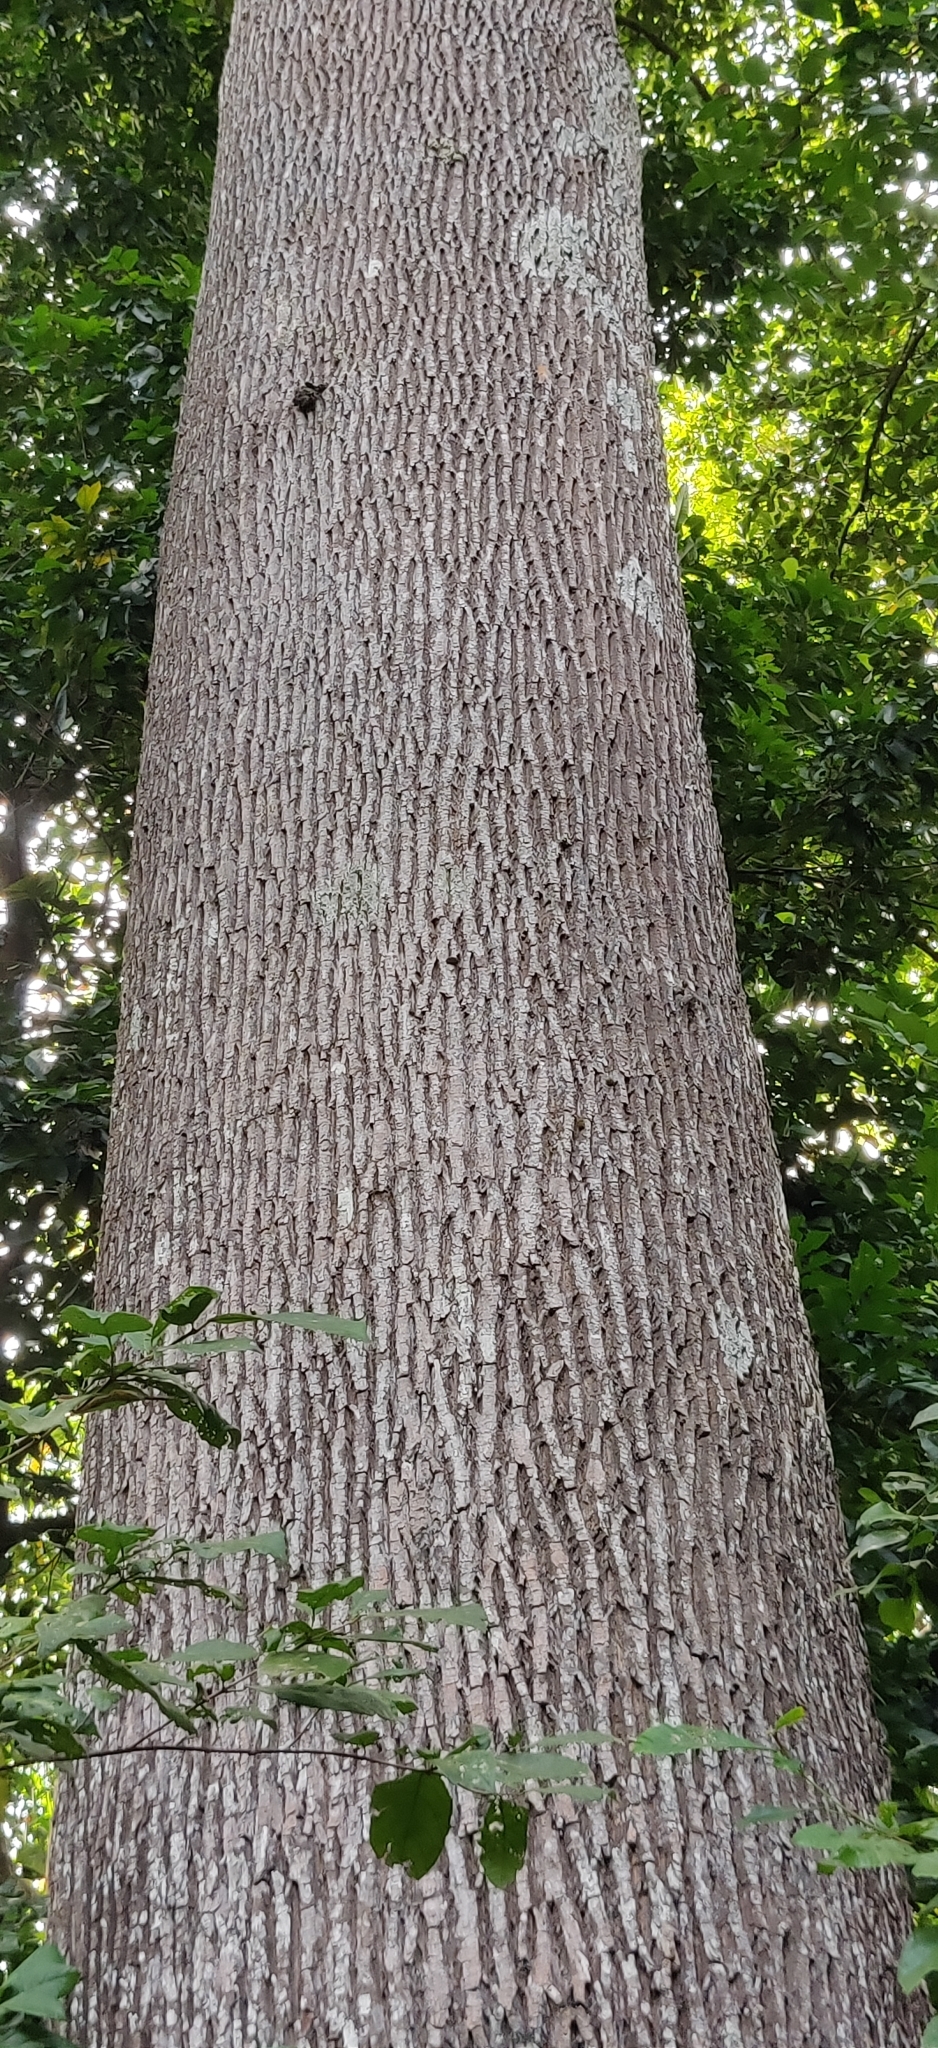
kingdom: Plantae
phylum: Tracheophyta
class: Magnoliopsida
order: Ericales
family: Sapotaceae
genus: Manilkara
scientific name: Manilkara littoralis
